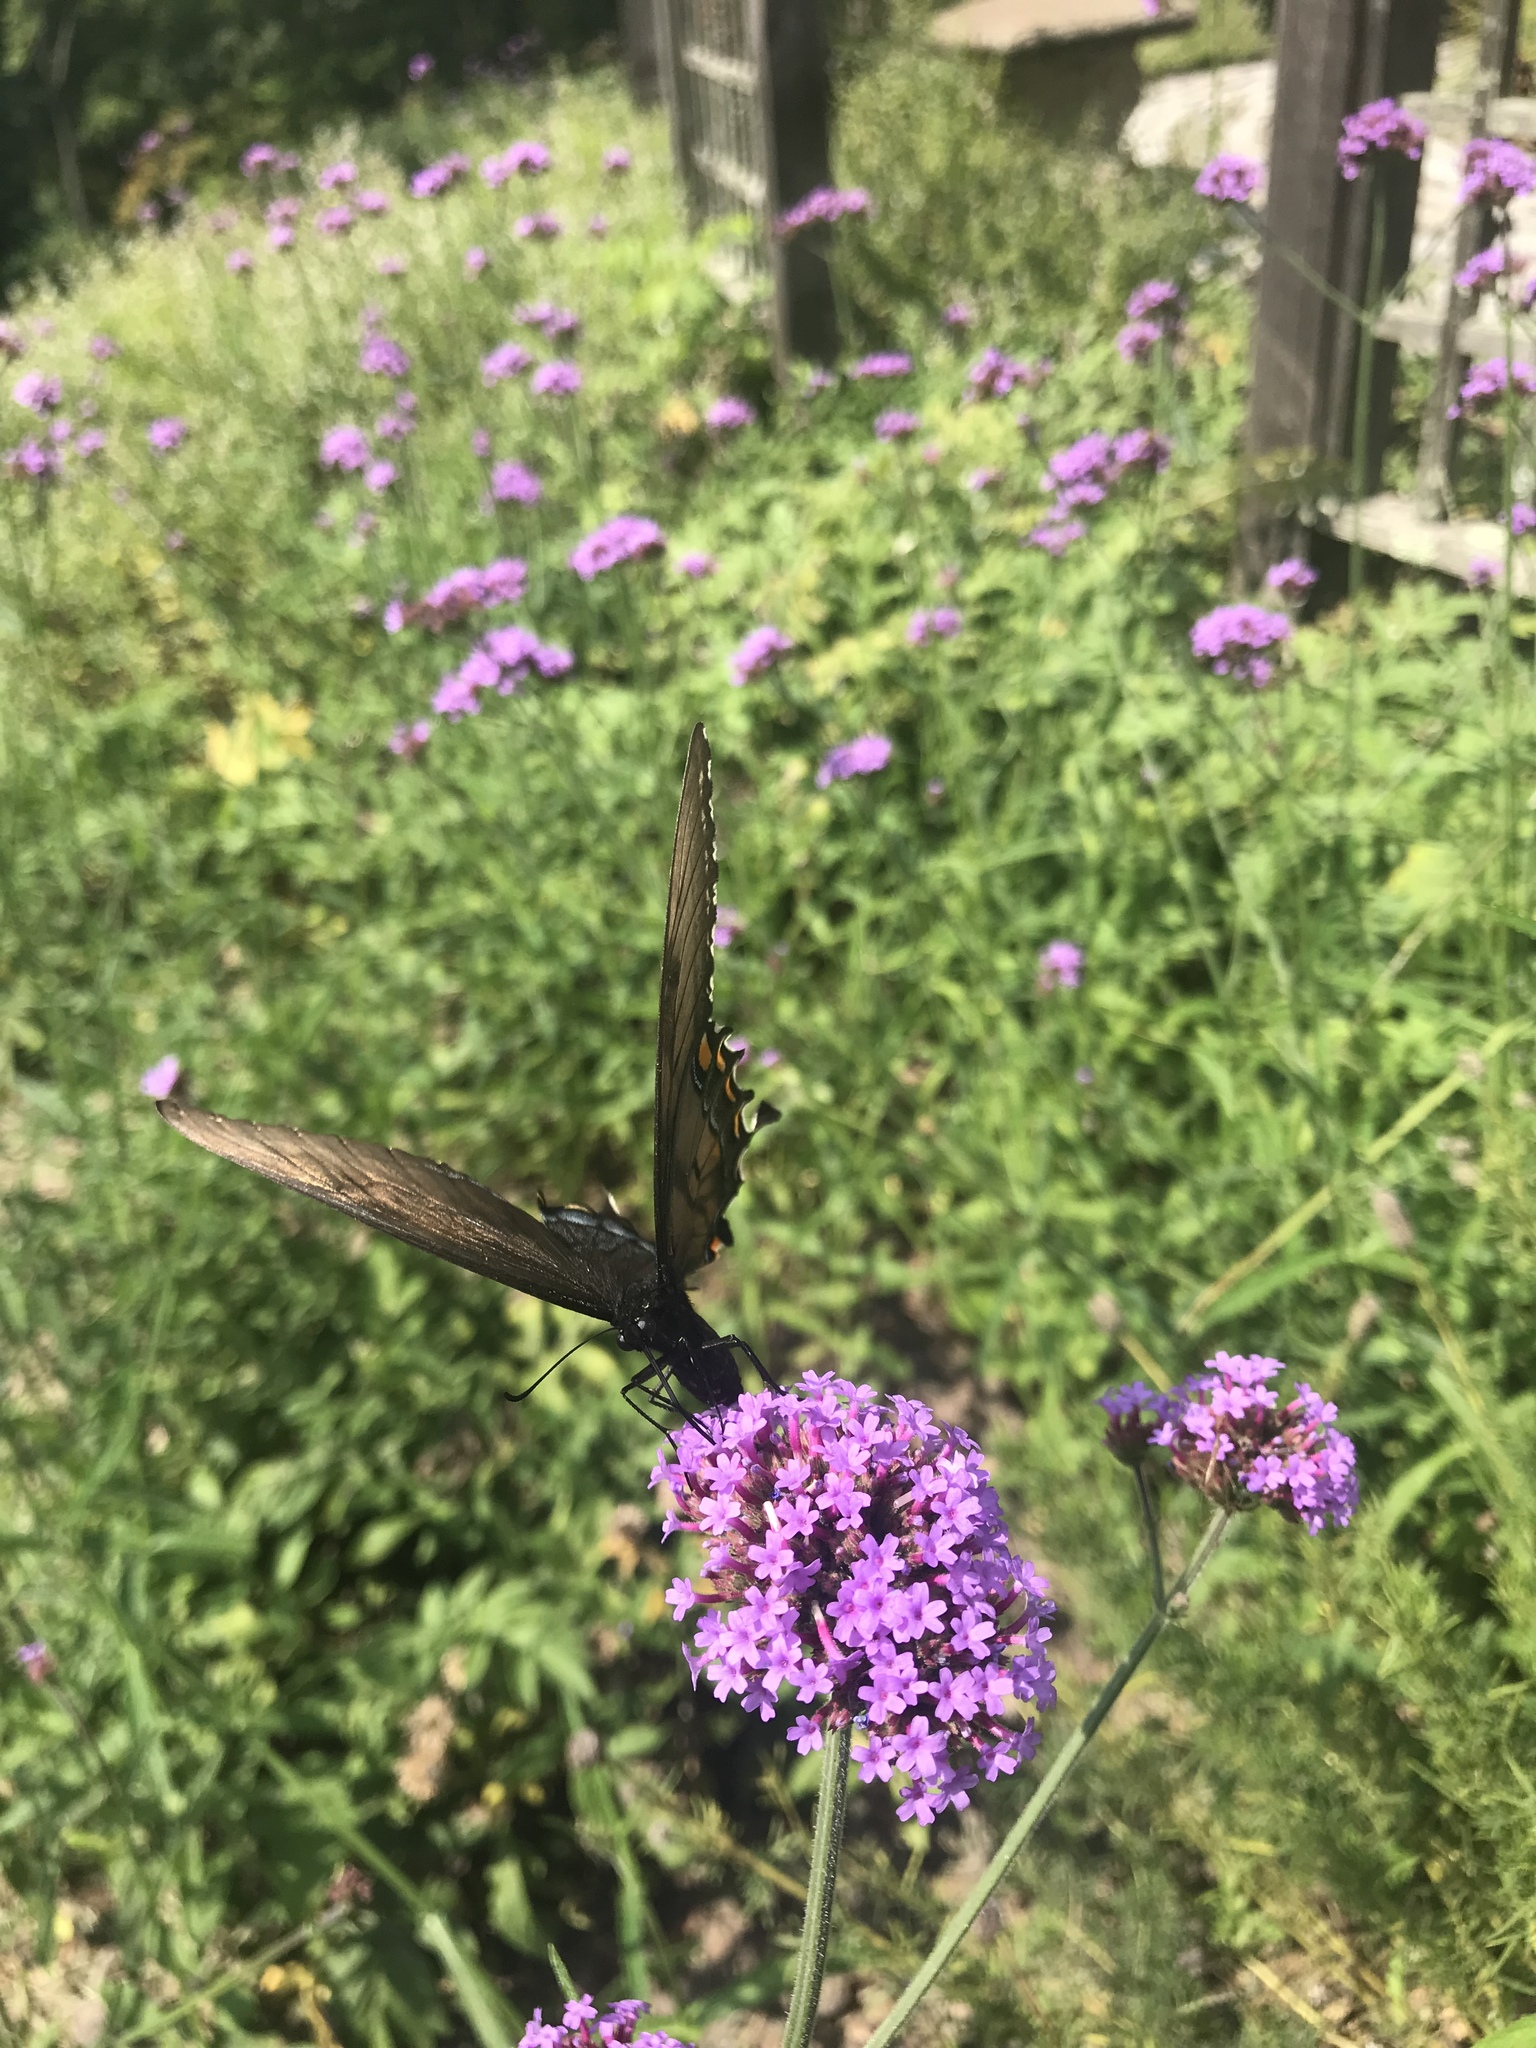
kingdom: Animalia
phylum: Arthropoda
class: Insecta
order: Lepidoptera
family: Papilionidae
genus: Papilio
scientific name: Papilio glaucus
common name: Tiger swallowtail
